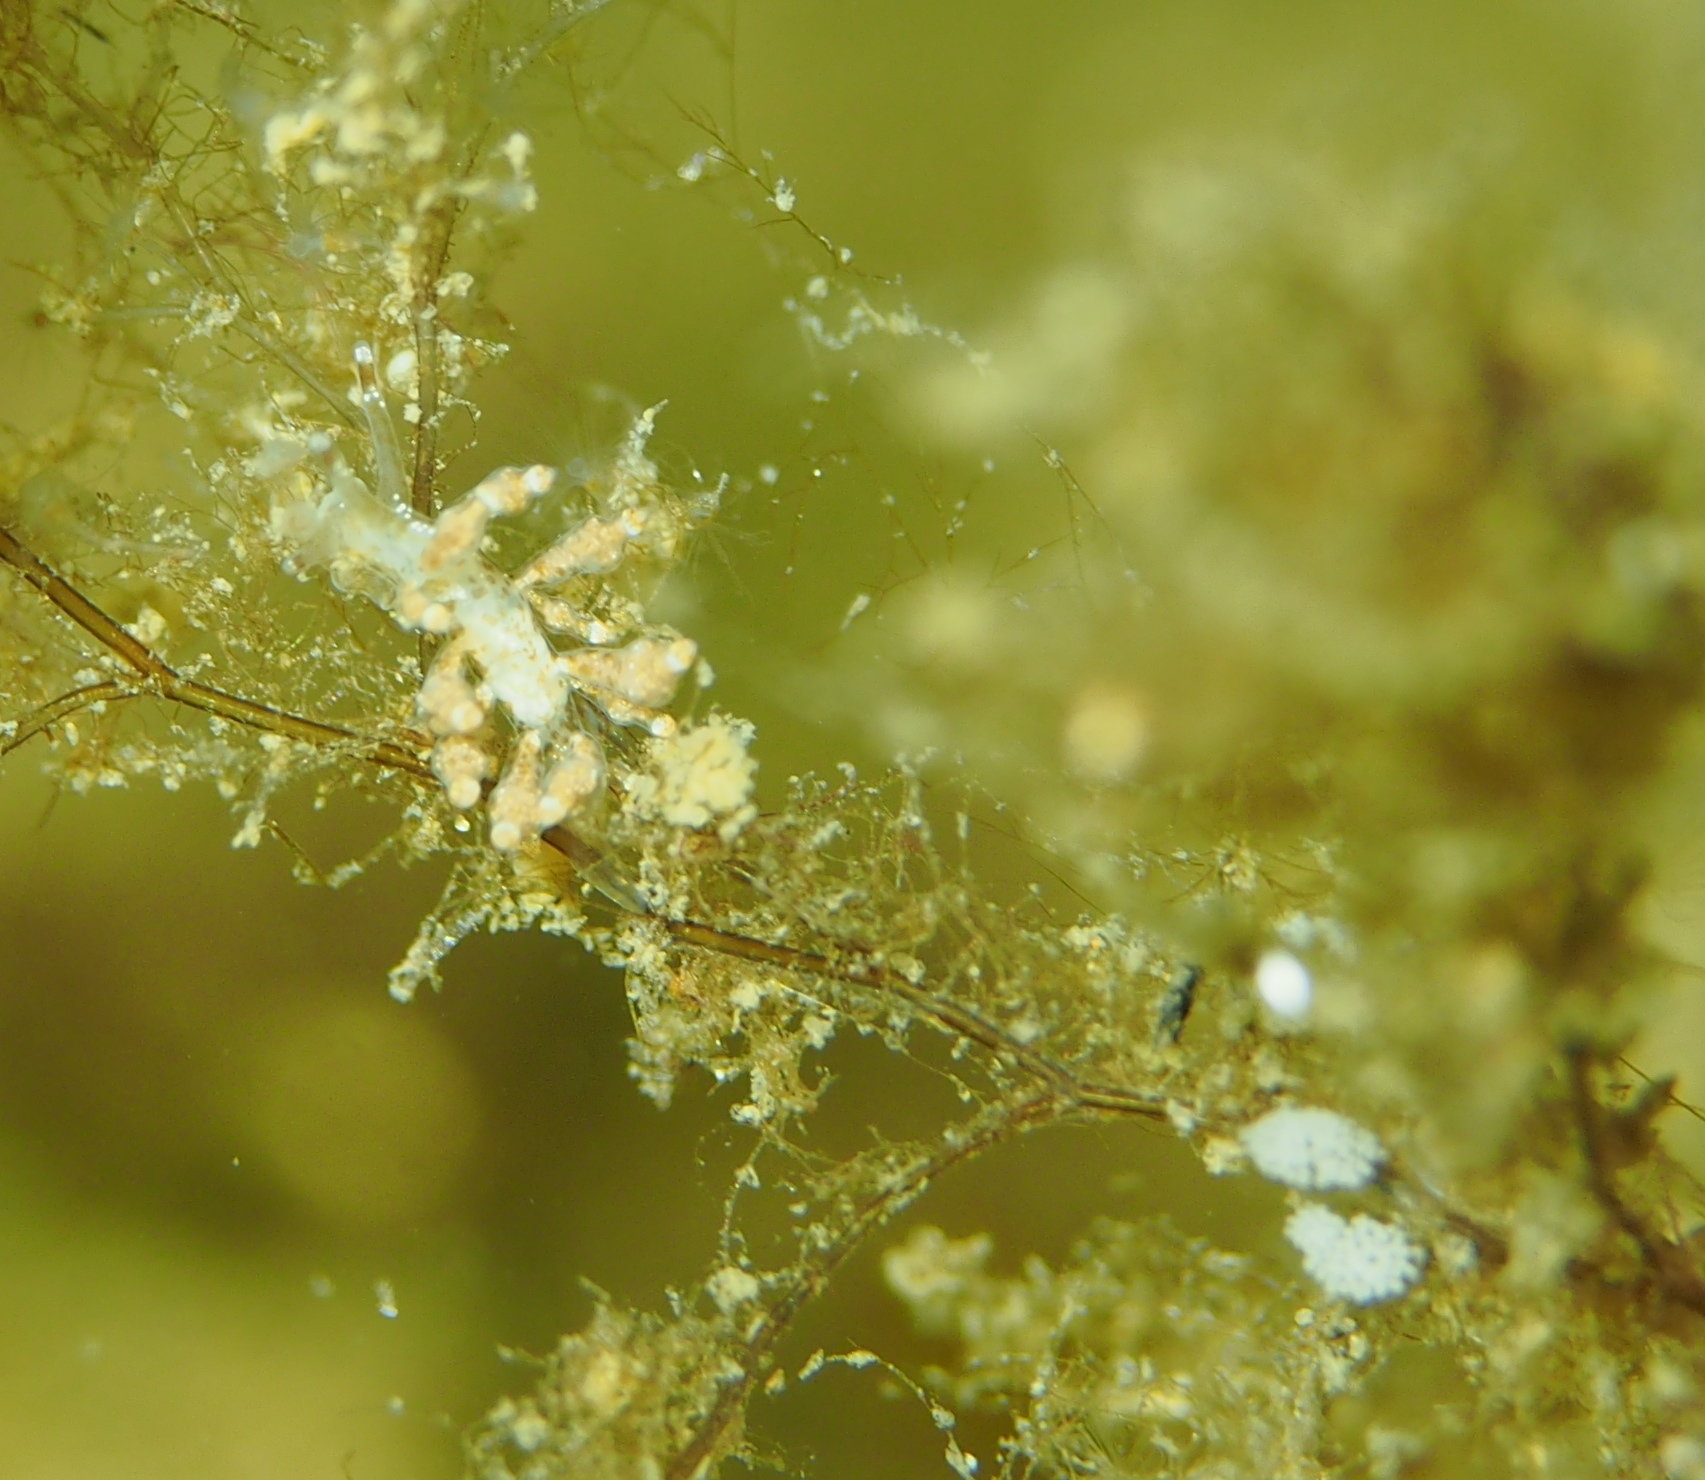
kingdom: Animalia
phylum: Mollusca
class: Gastropoda
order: Nudibranchia
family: Eubranchidae
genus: Eubranchus
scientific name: Eubranchus exiguus
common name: Balloon aeolis
